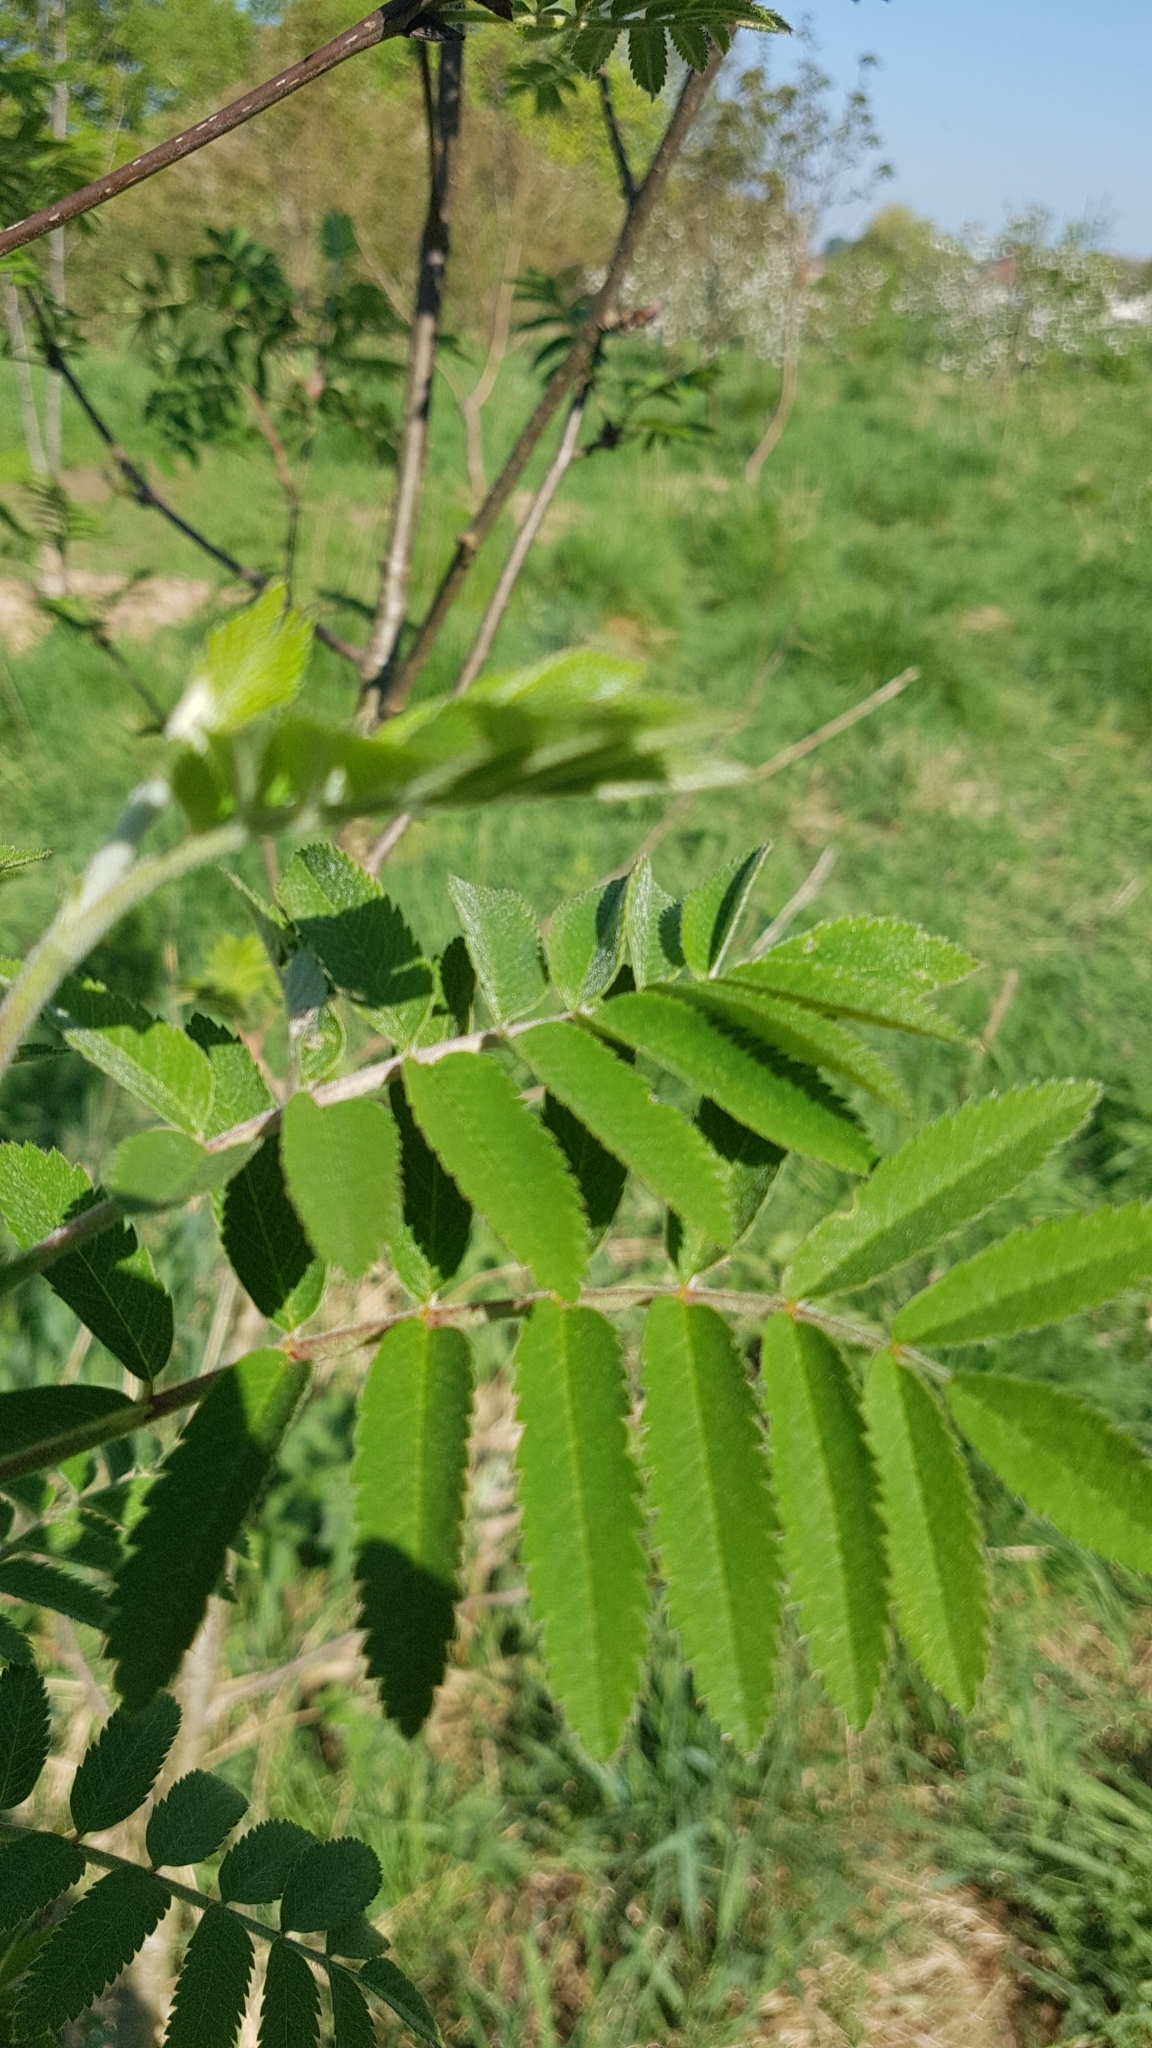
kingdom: Plantae
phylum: Tracheophyta
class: Magnoliopsida
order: Rosales
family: Rosaceae
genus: Sorbus
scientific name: Sorbus aucuparia
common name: Rowan
